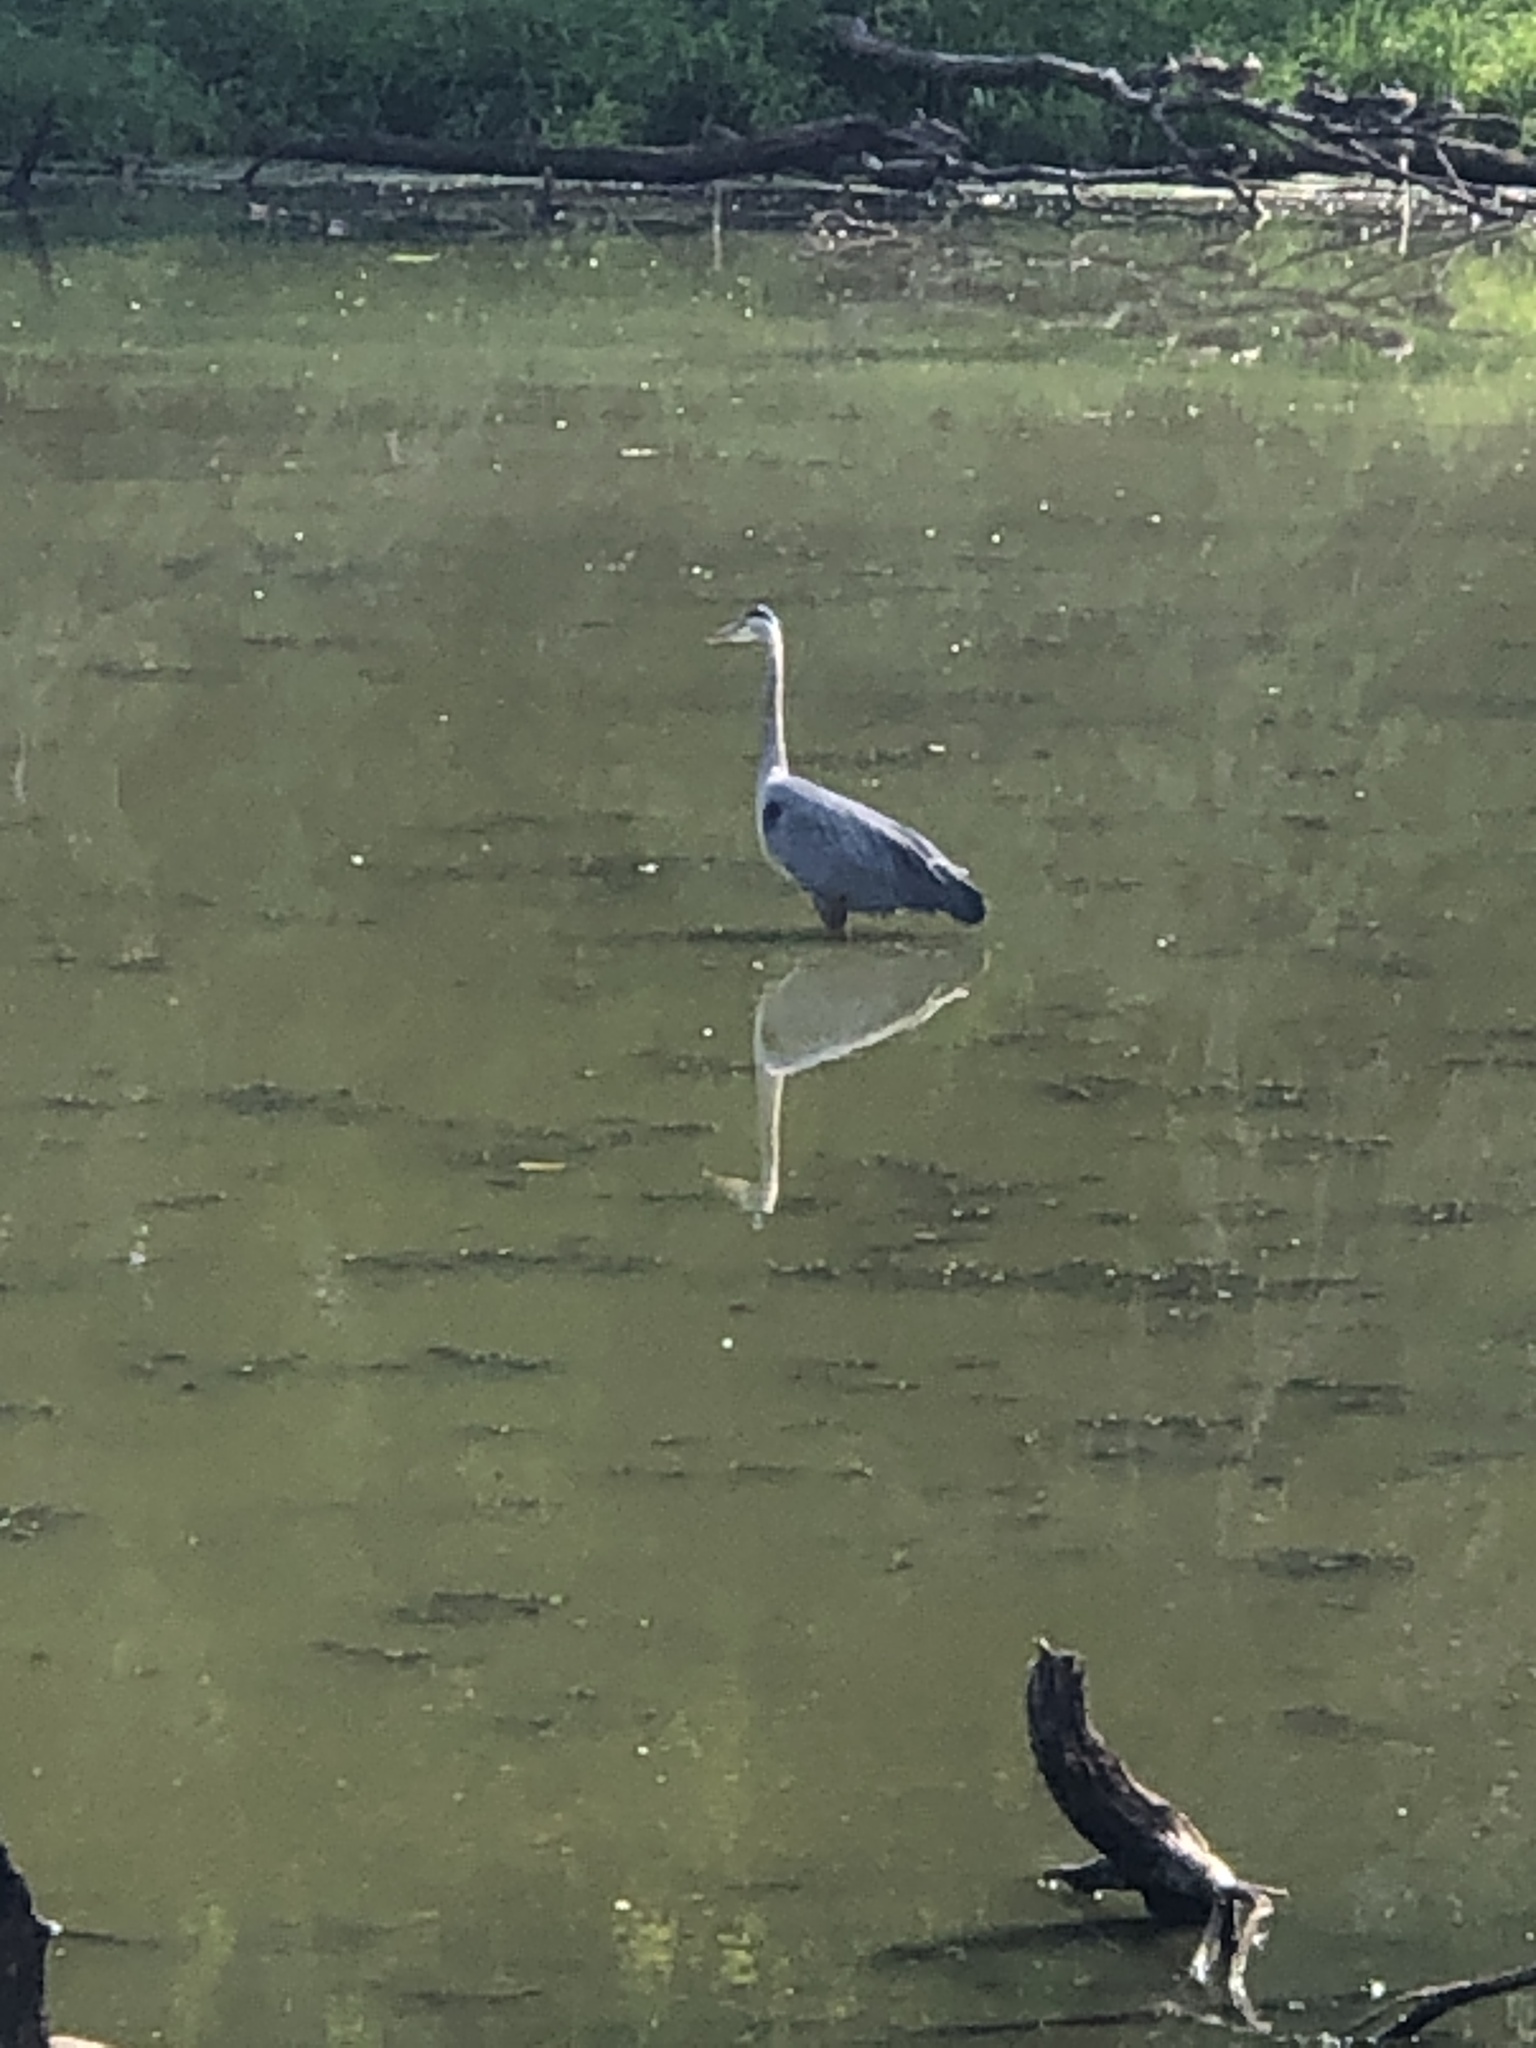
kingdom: Animalia
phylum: Chordata
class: Aves
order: Pelecaniformes
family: Ardeidae
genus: Ardea
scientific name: Ardea herodias
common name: Great blue heron
